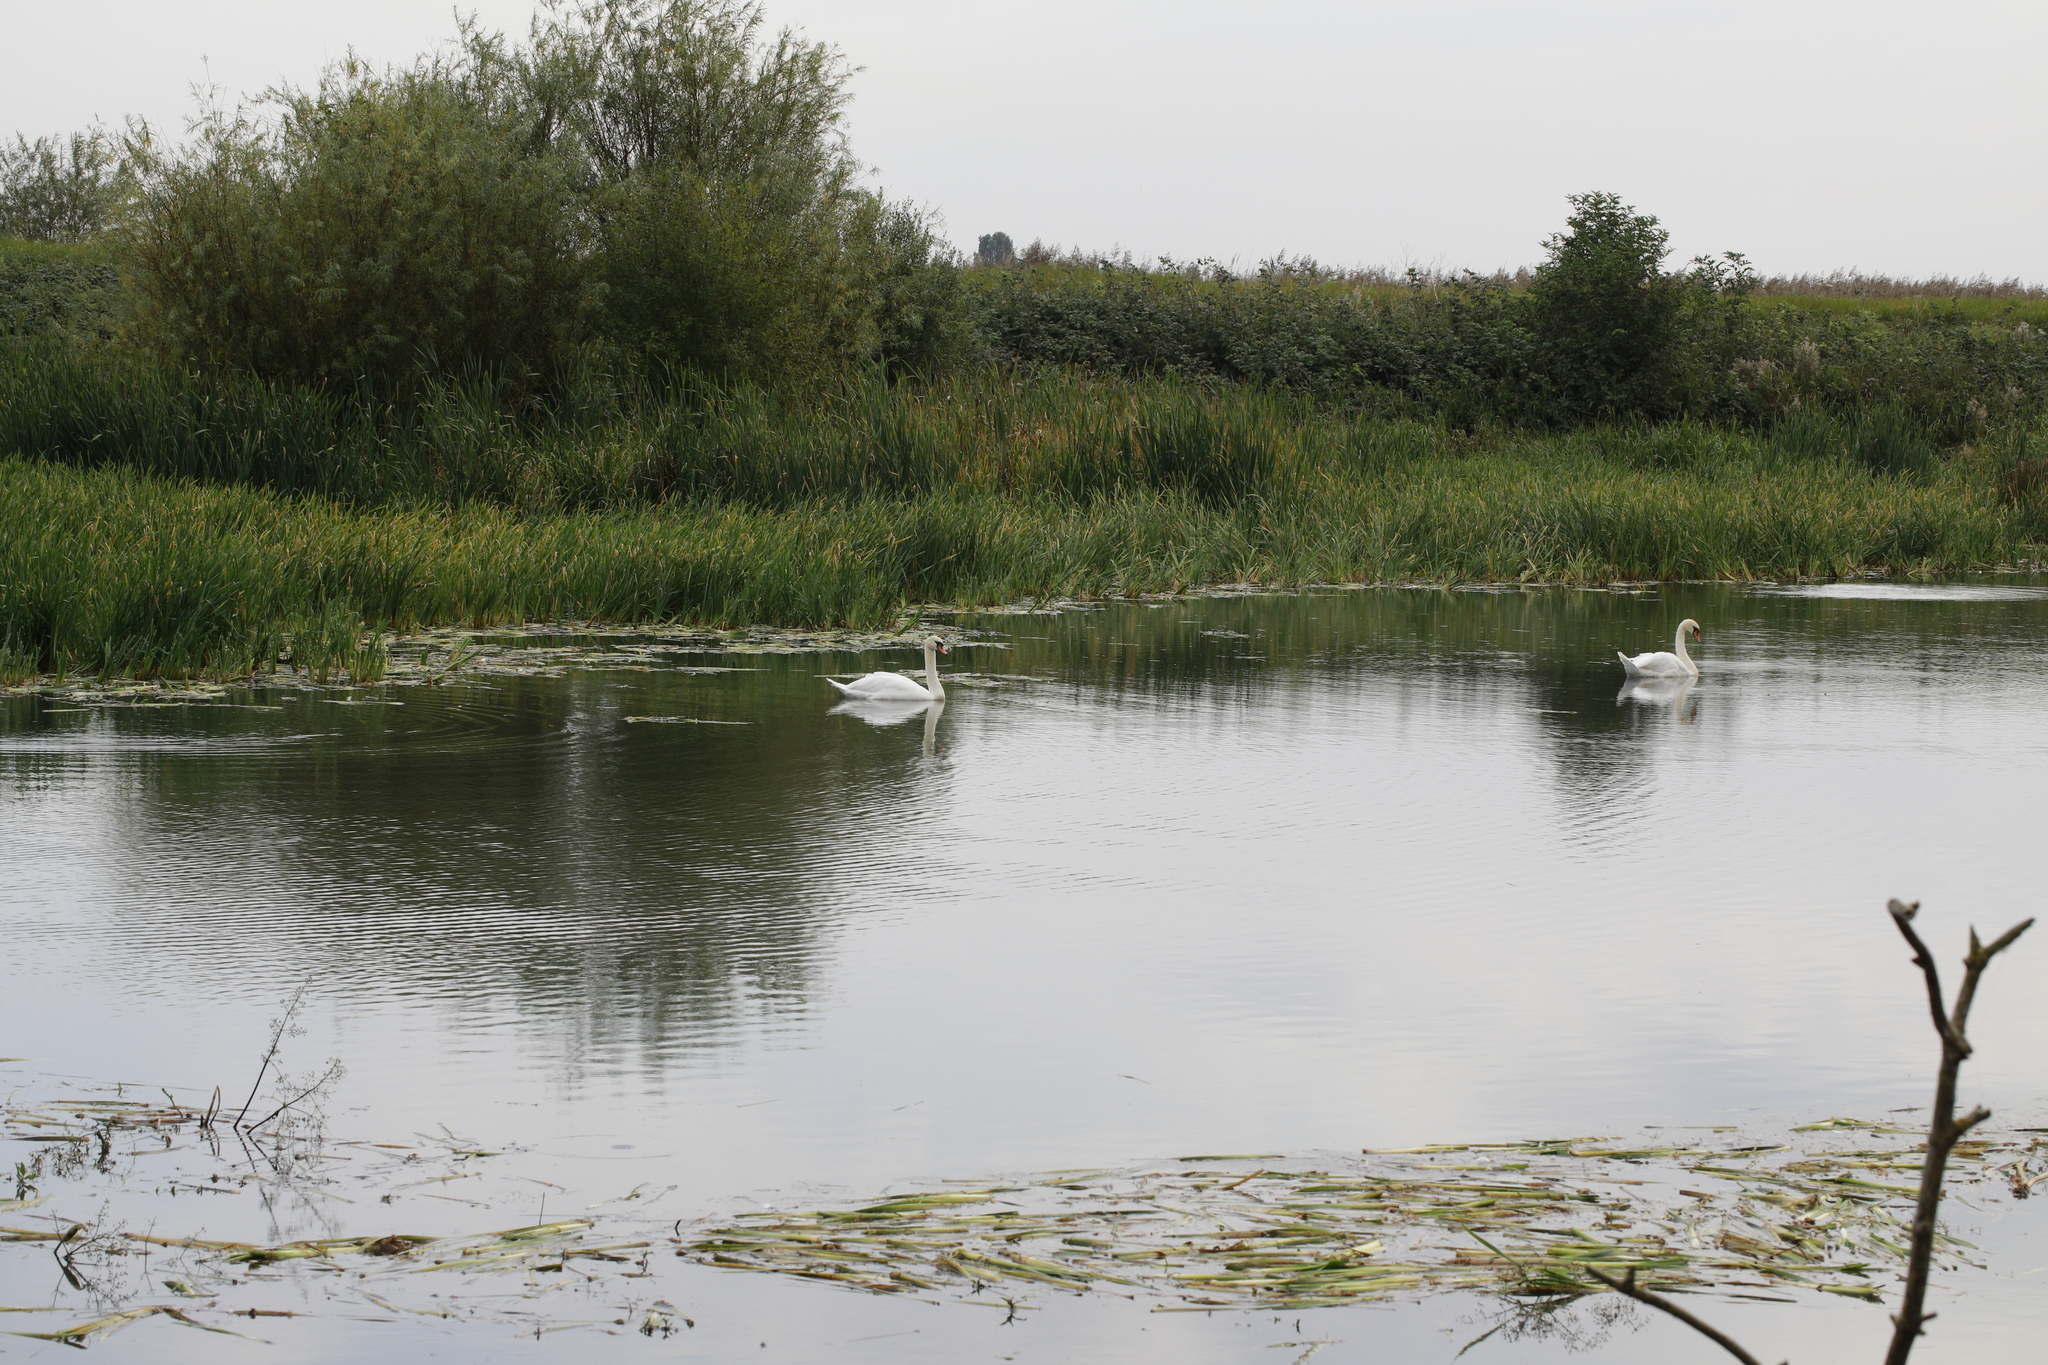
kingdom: Animalia
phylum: Chordata
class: Aves
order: Anseriformes
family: Anatidae
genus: Cygnus
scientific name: Cygnus olor
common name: Mute swan
